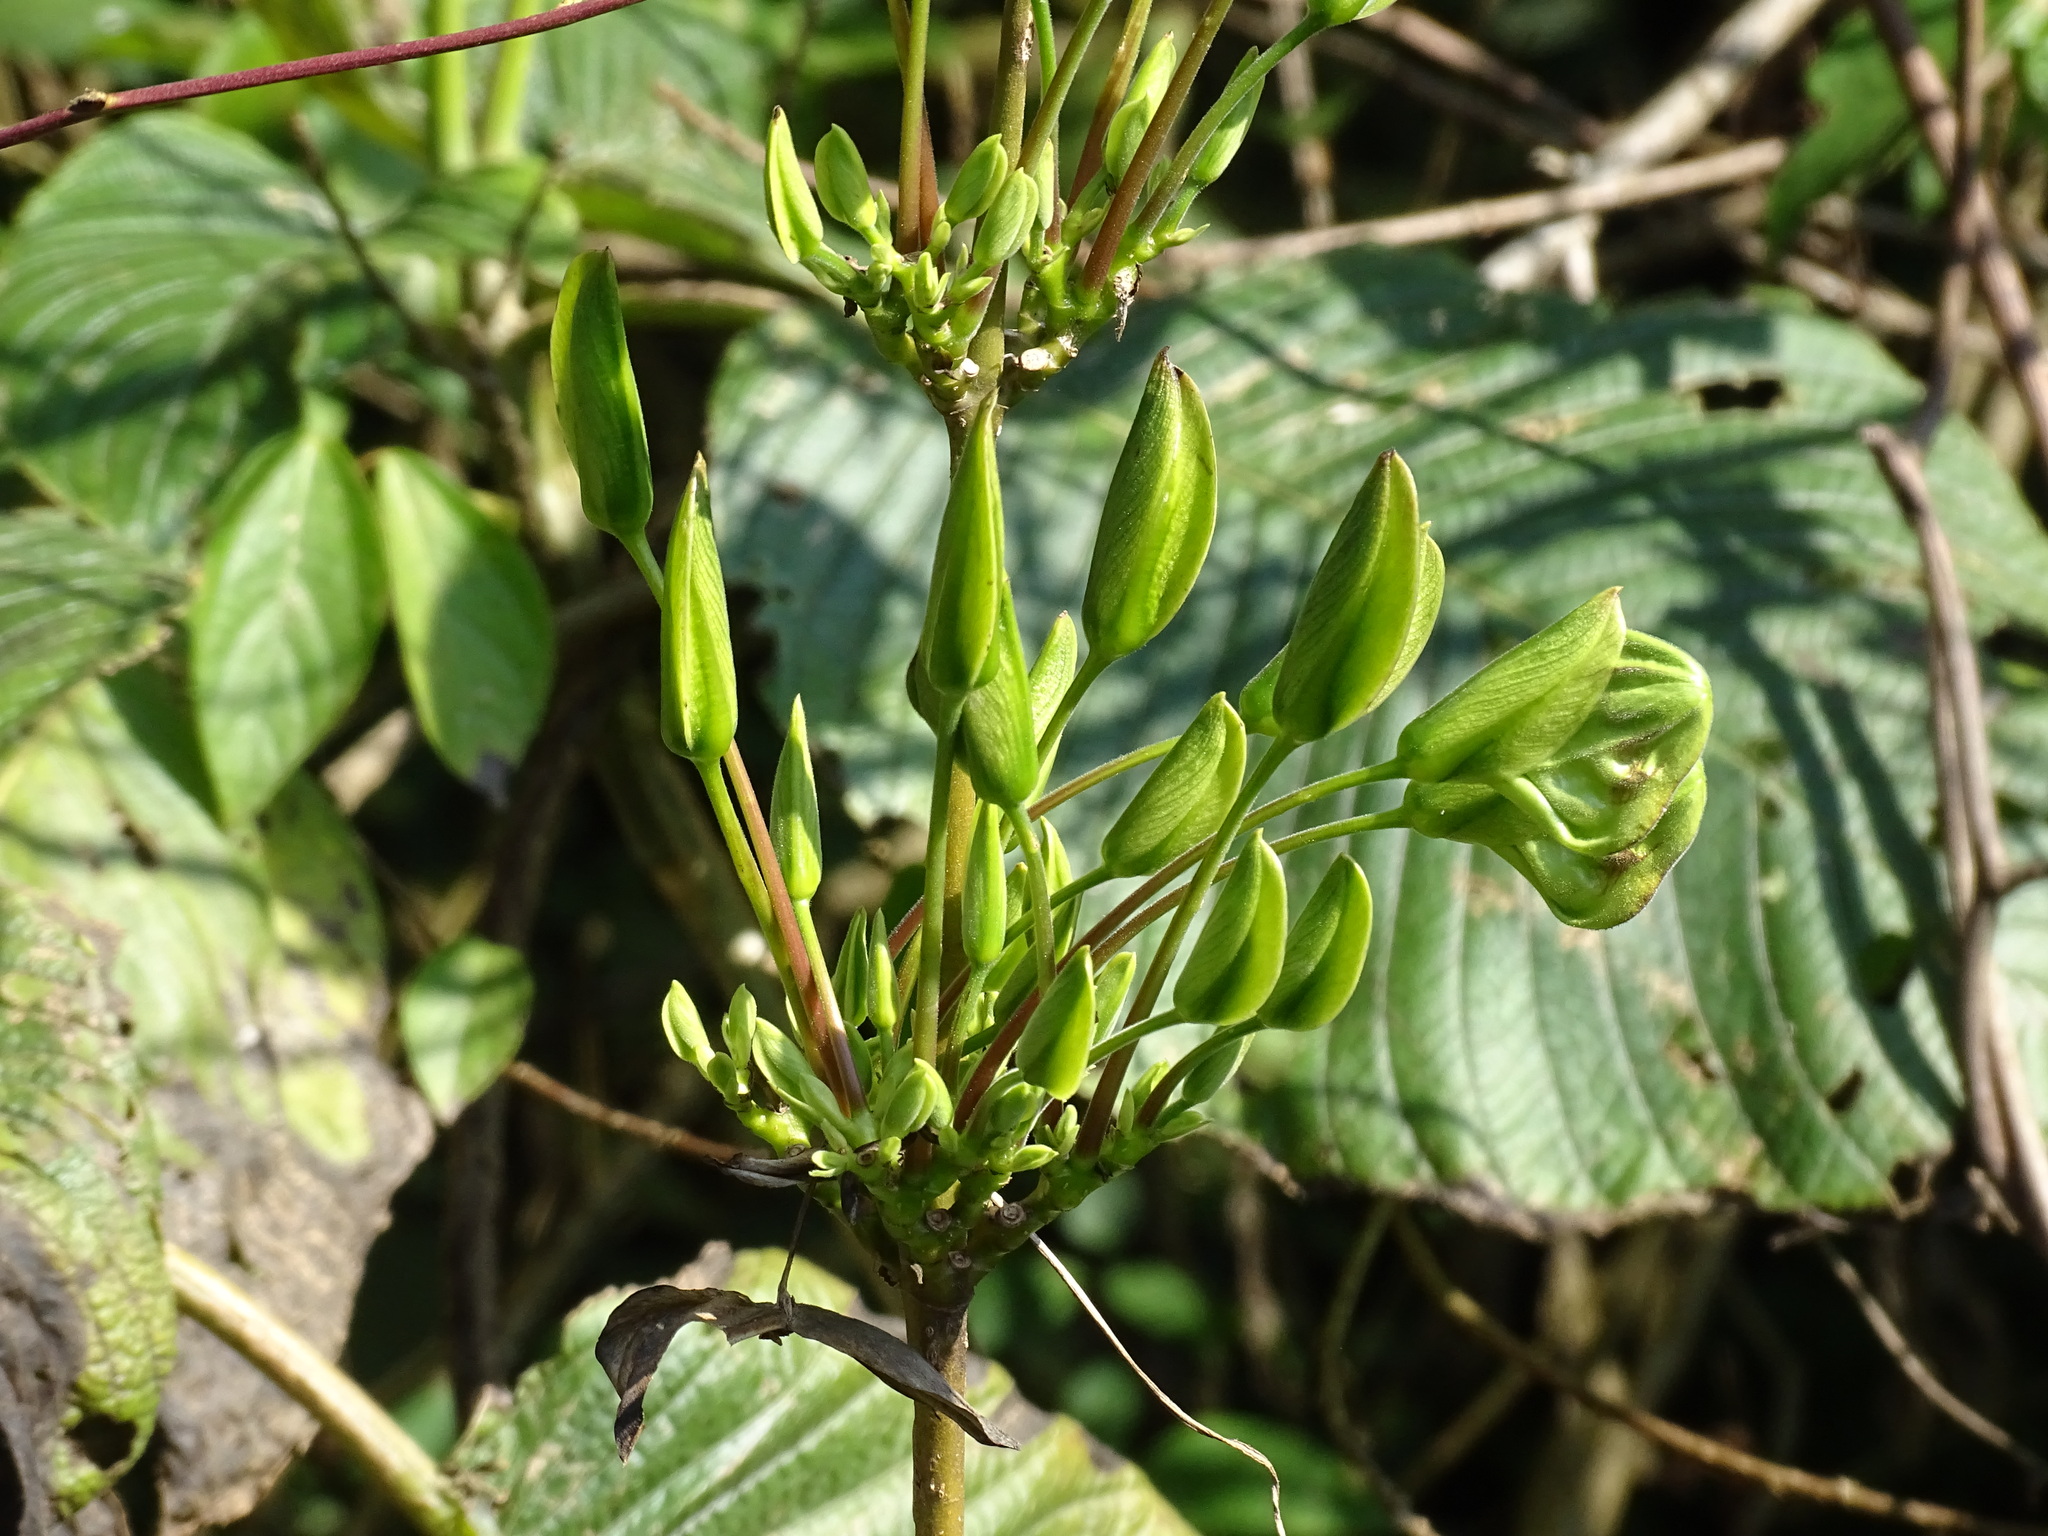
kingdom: Plantae
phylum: Tracheophyta
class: Magnoliopsida
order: Lamiales
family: Acanthaceae
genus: Louteridium
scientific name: Louteridium purpusii
